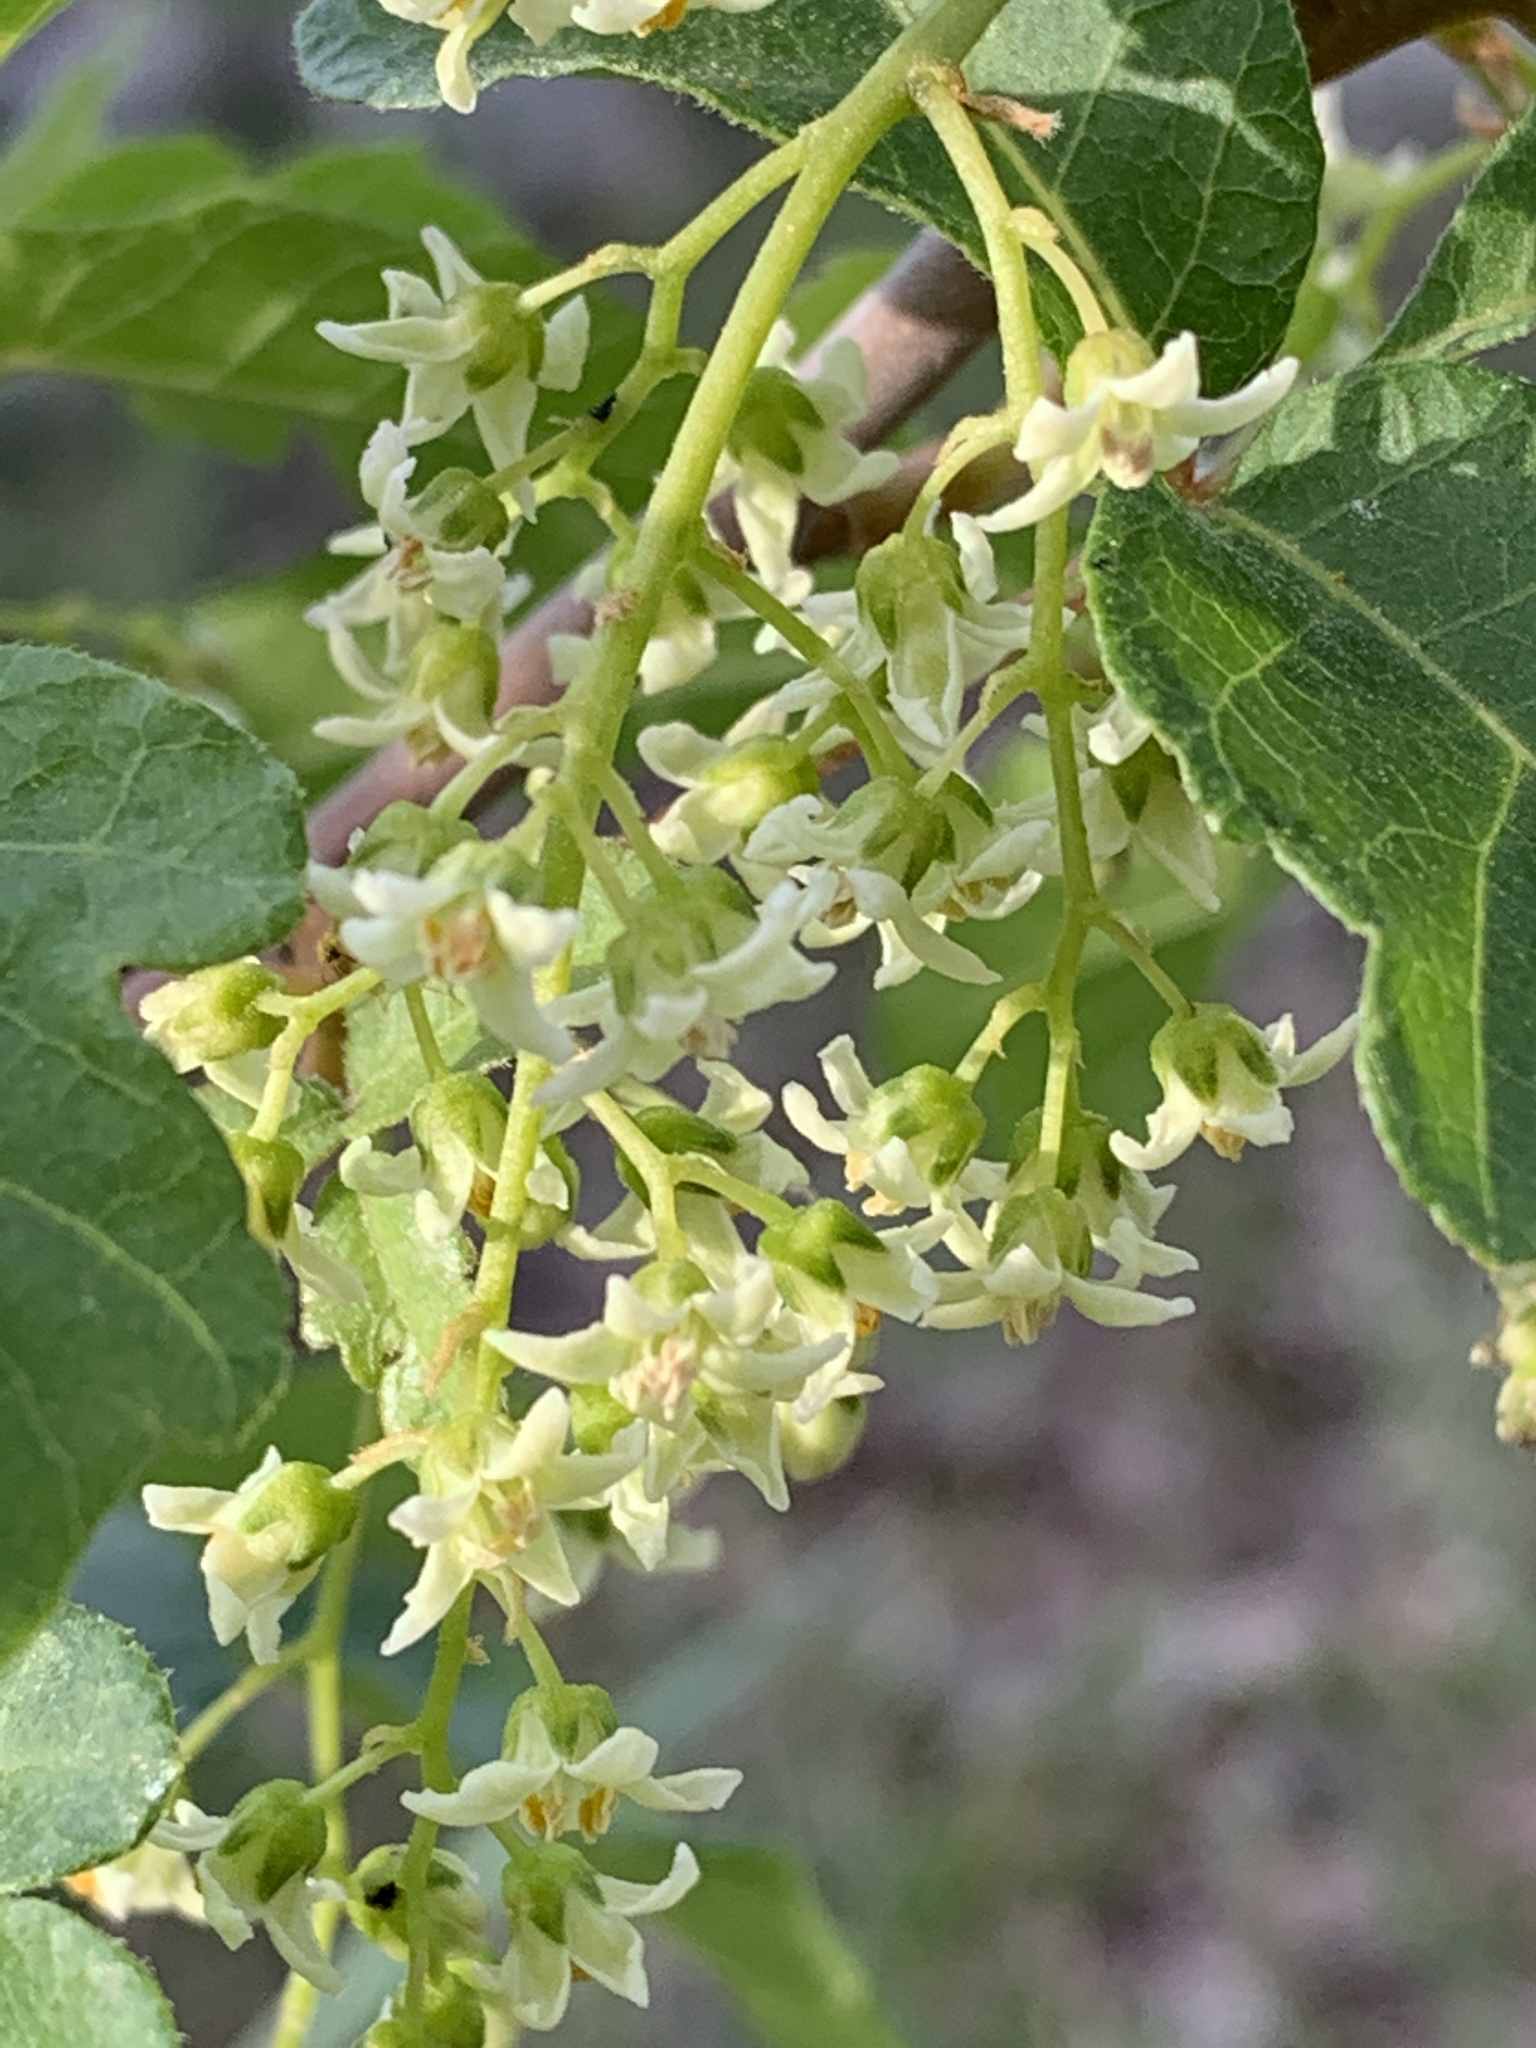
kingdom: Plantae
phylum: Tracheophyta
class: Magnoliopsida
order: Sapindales
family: Anacardiaceae
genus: Toxicodendron
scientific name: Toxicodendron diversilobum
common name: Pacific poison-oak
